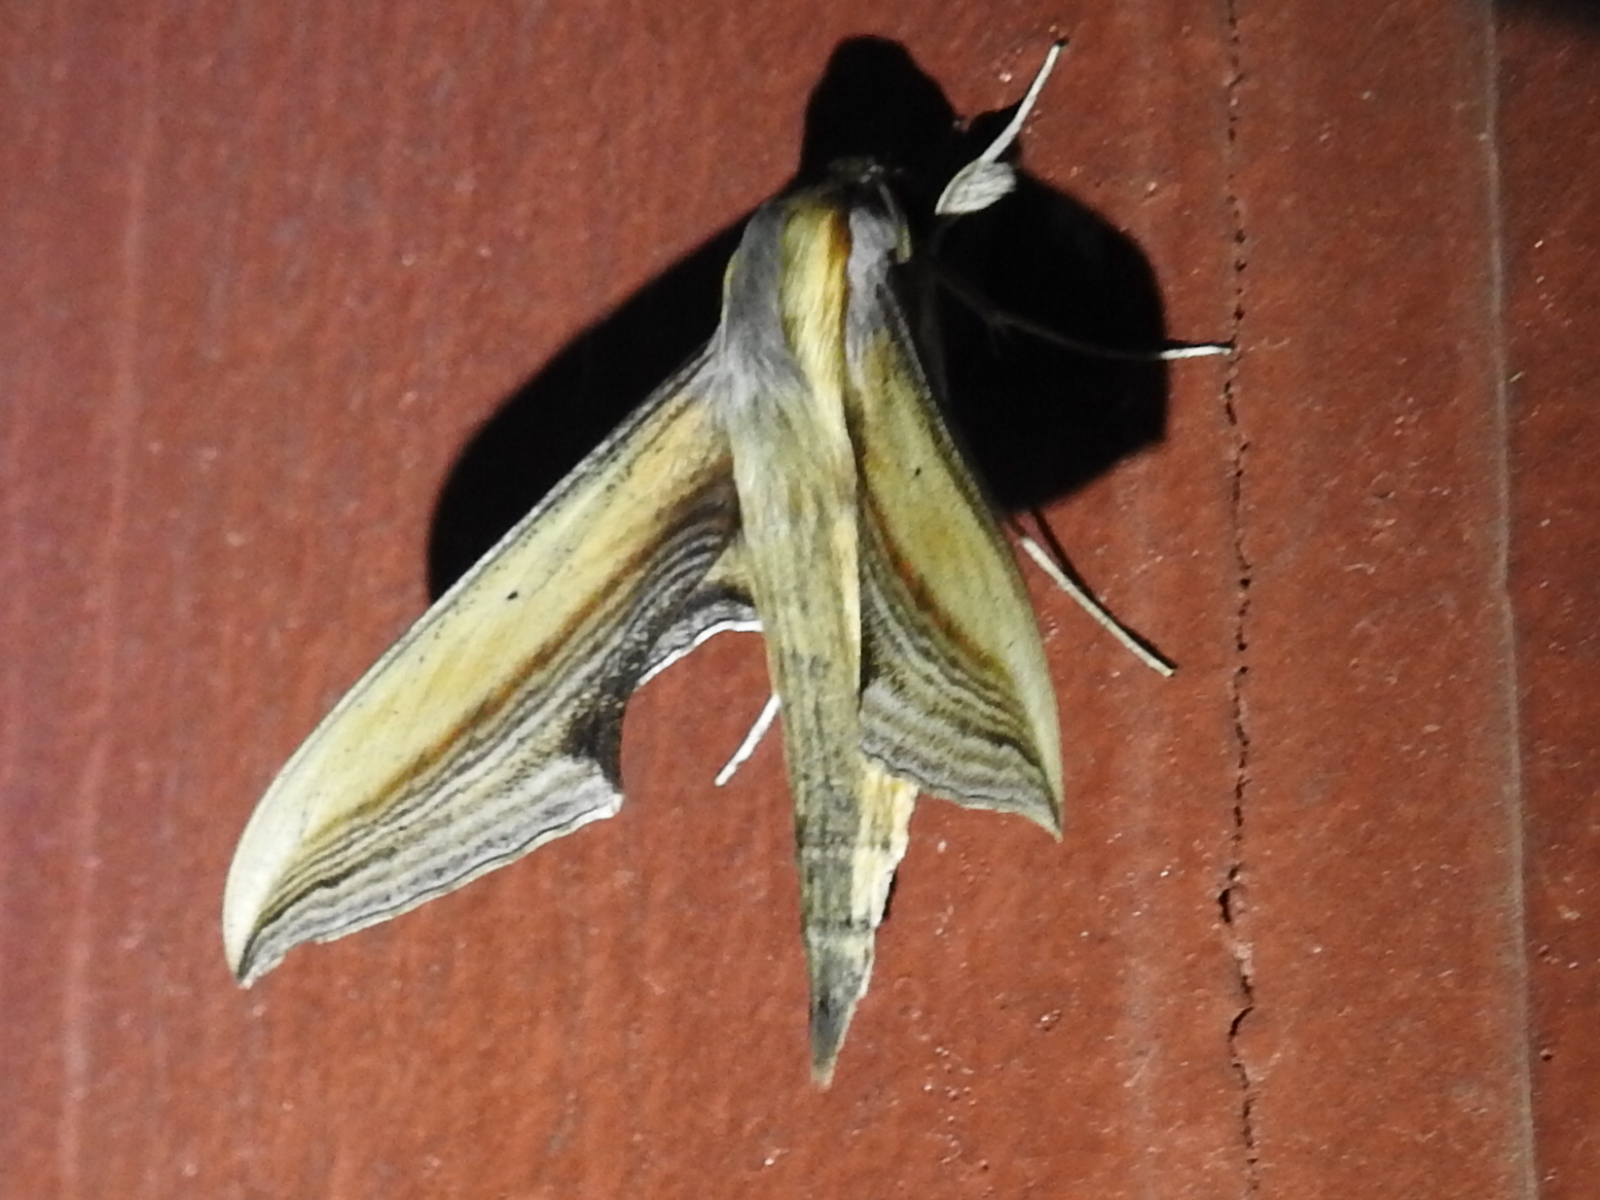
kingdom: Animalia
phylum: Arthropoda
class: Insecta
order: Lepidoptera
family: Sphingidae
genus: Xylophanes
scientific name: Xylophanes falco
